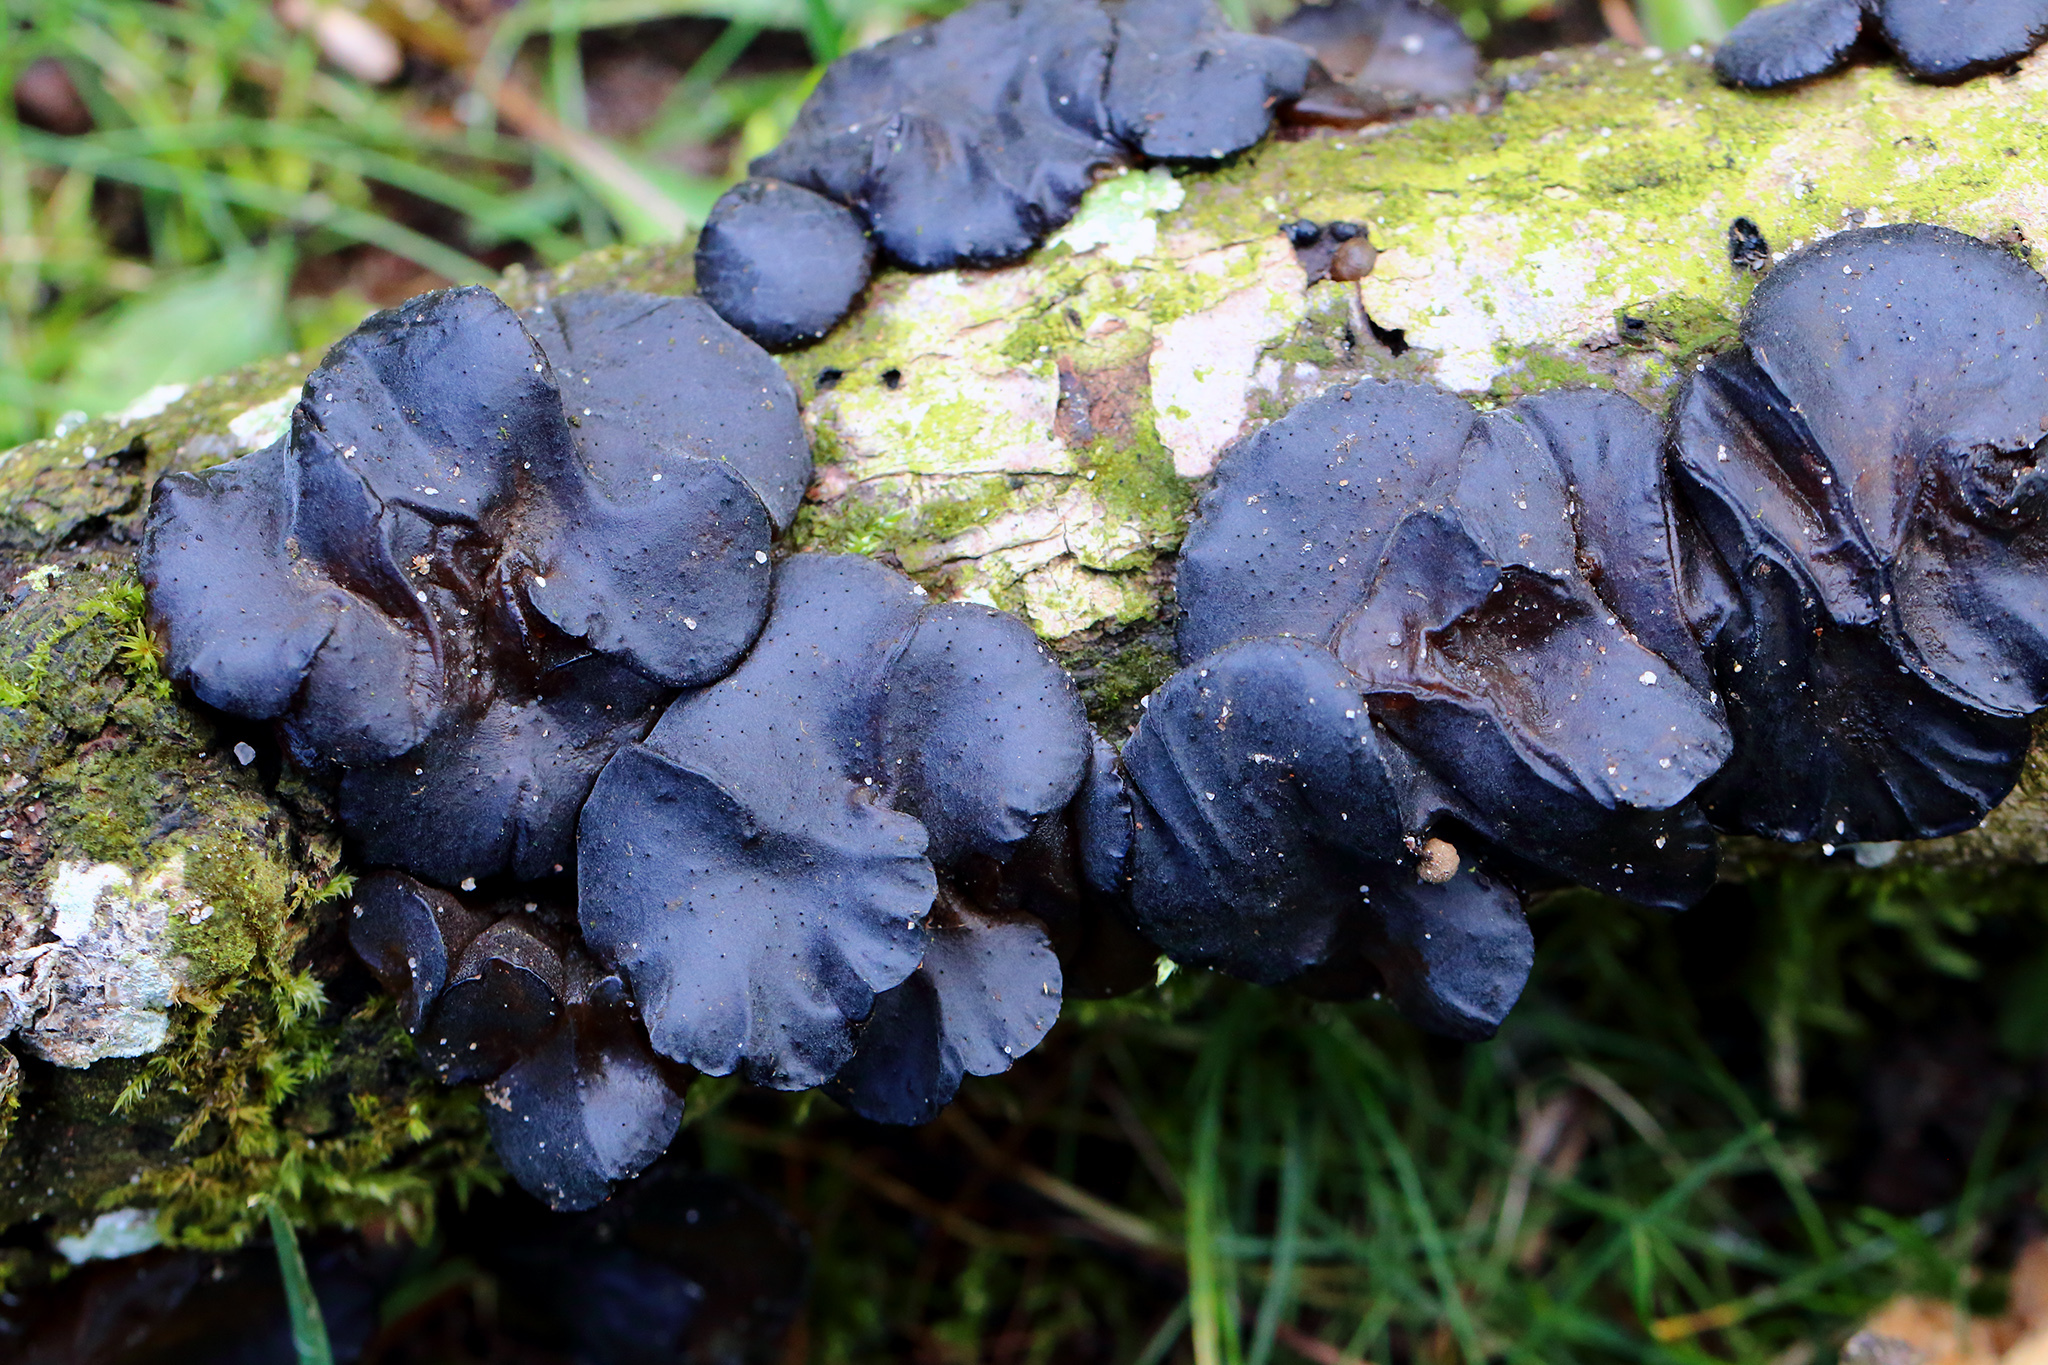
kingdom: Fungi
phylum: Basidiomycota
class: Agaricomycetes
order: Auriculariales
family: Auriculariaceae
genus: Exidia
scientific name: Exidia glandulosa
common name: Witches' butter
